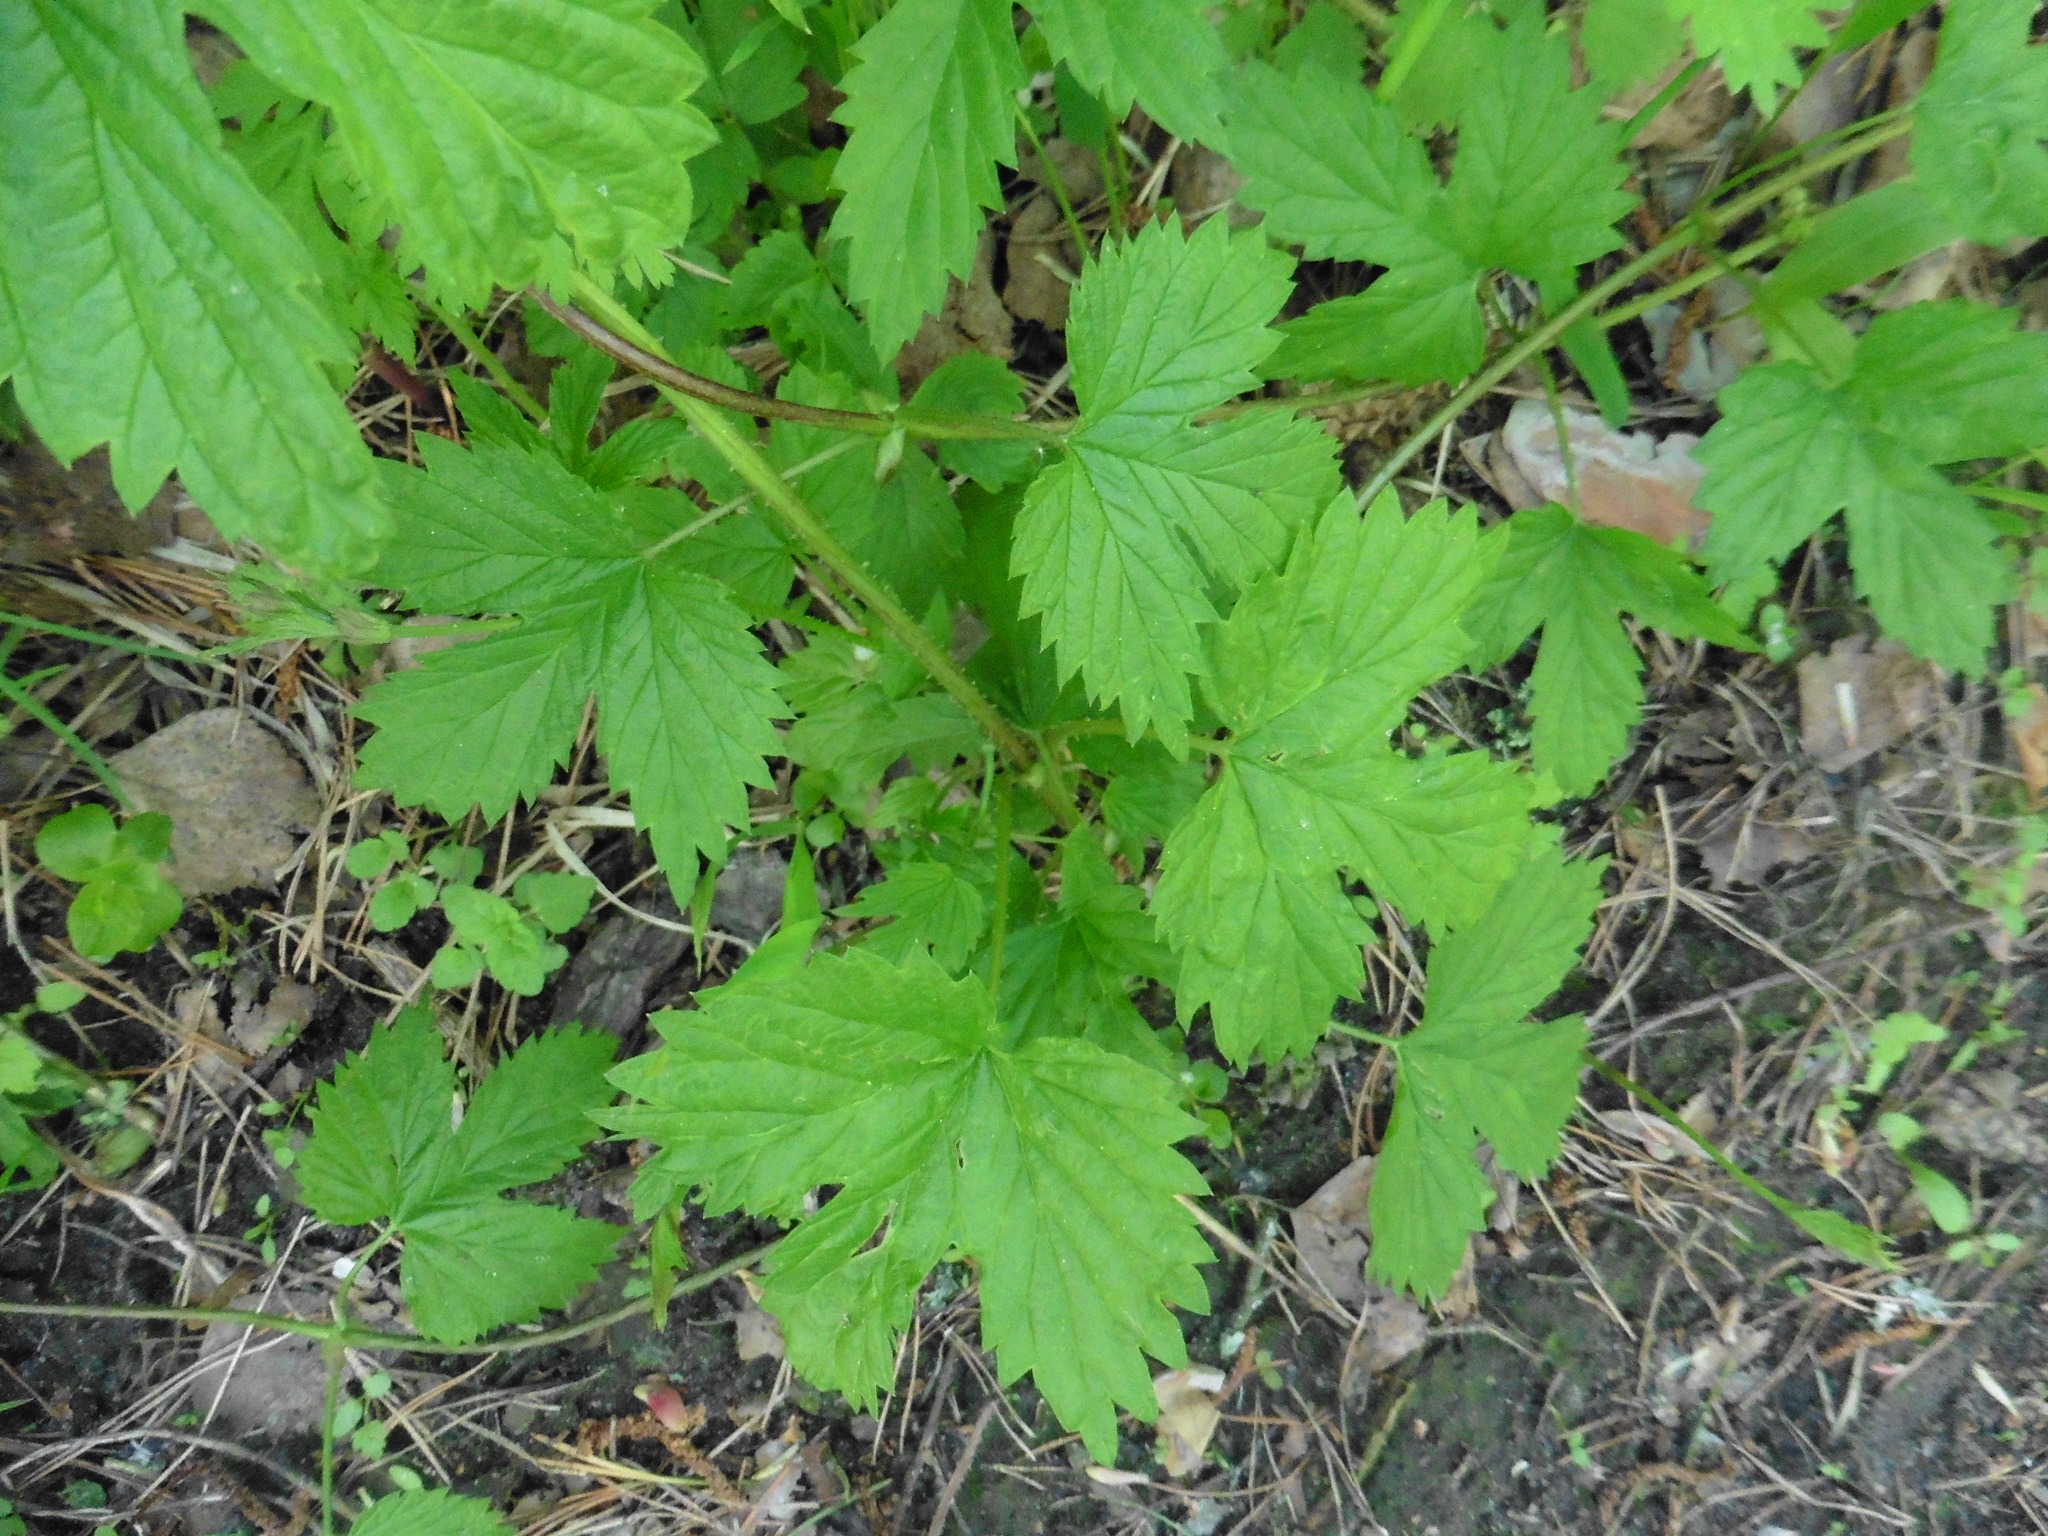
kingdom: Plantae
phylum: Tracheophyta
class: Magnoliopsida
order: Rosales
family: Cannabaceae
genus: Humulus
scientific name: Humulus lupulus
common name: Hop
